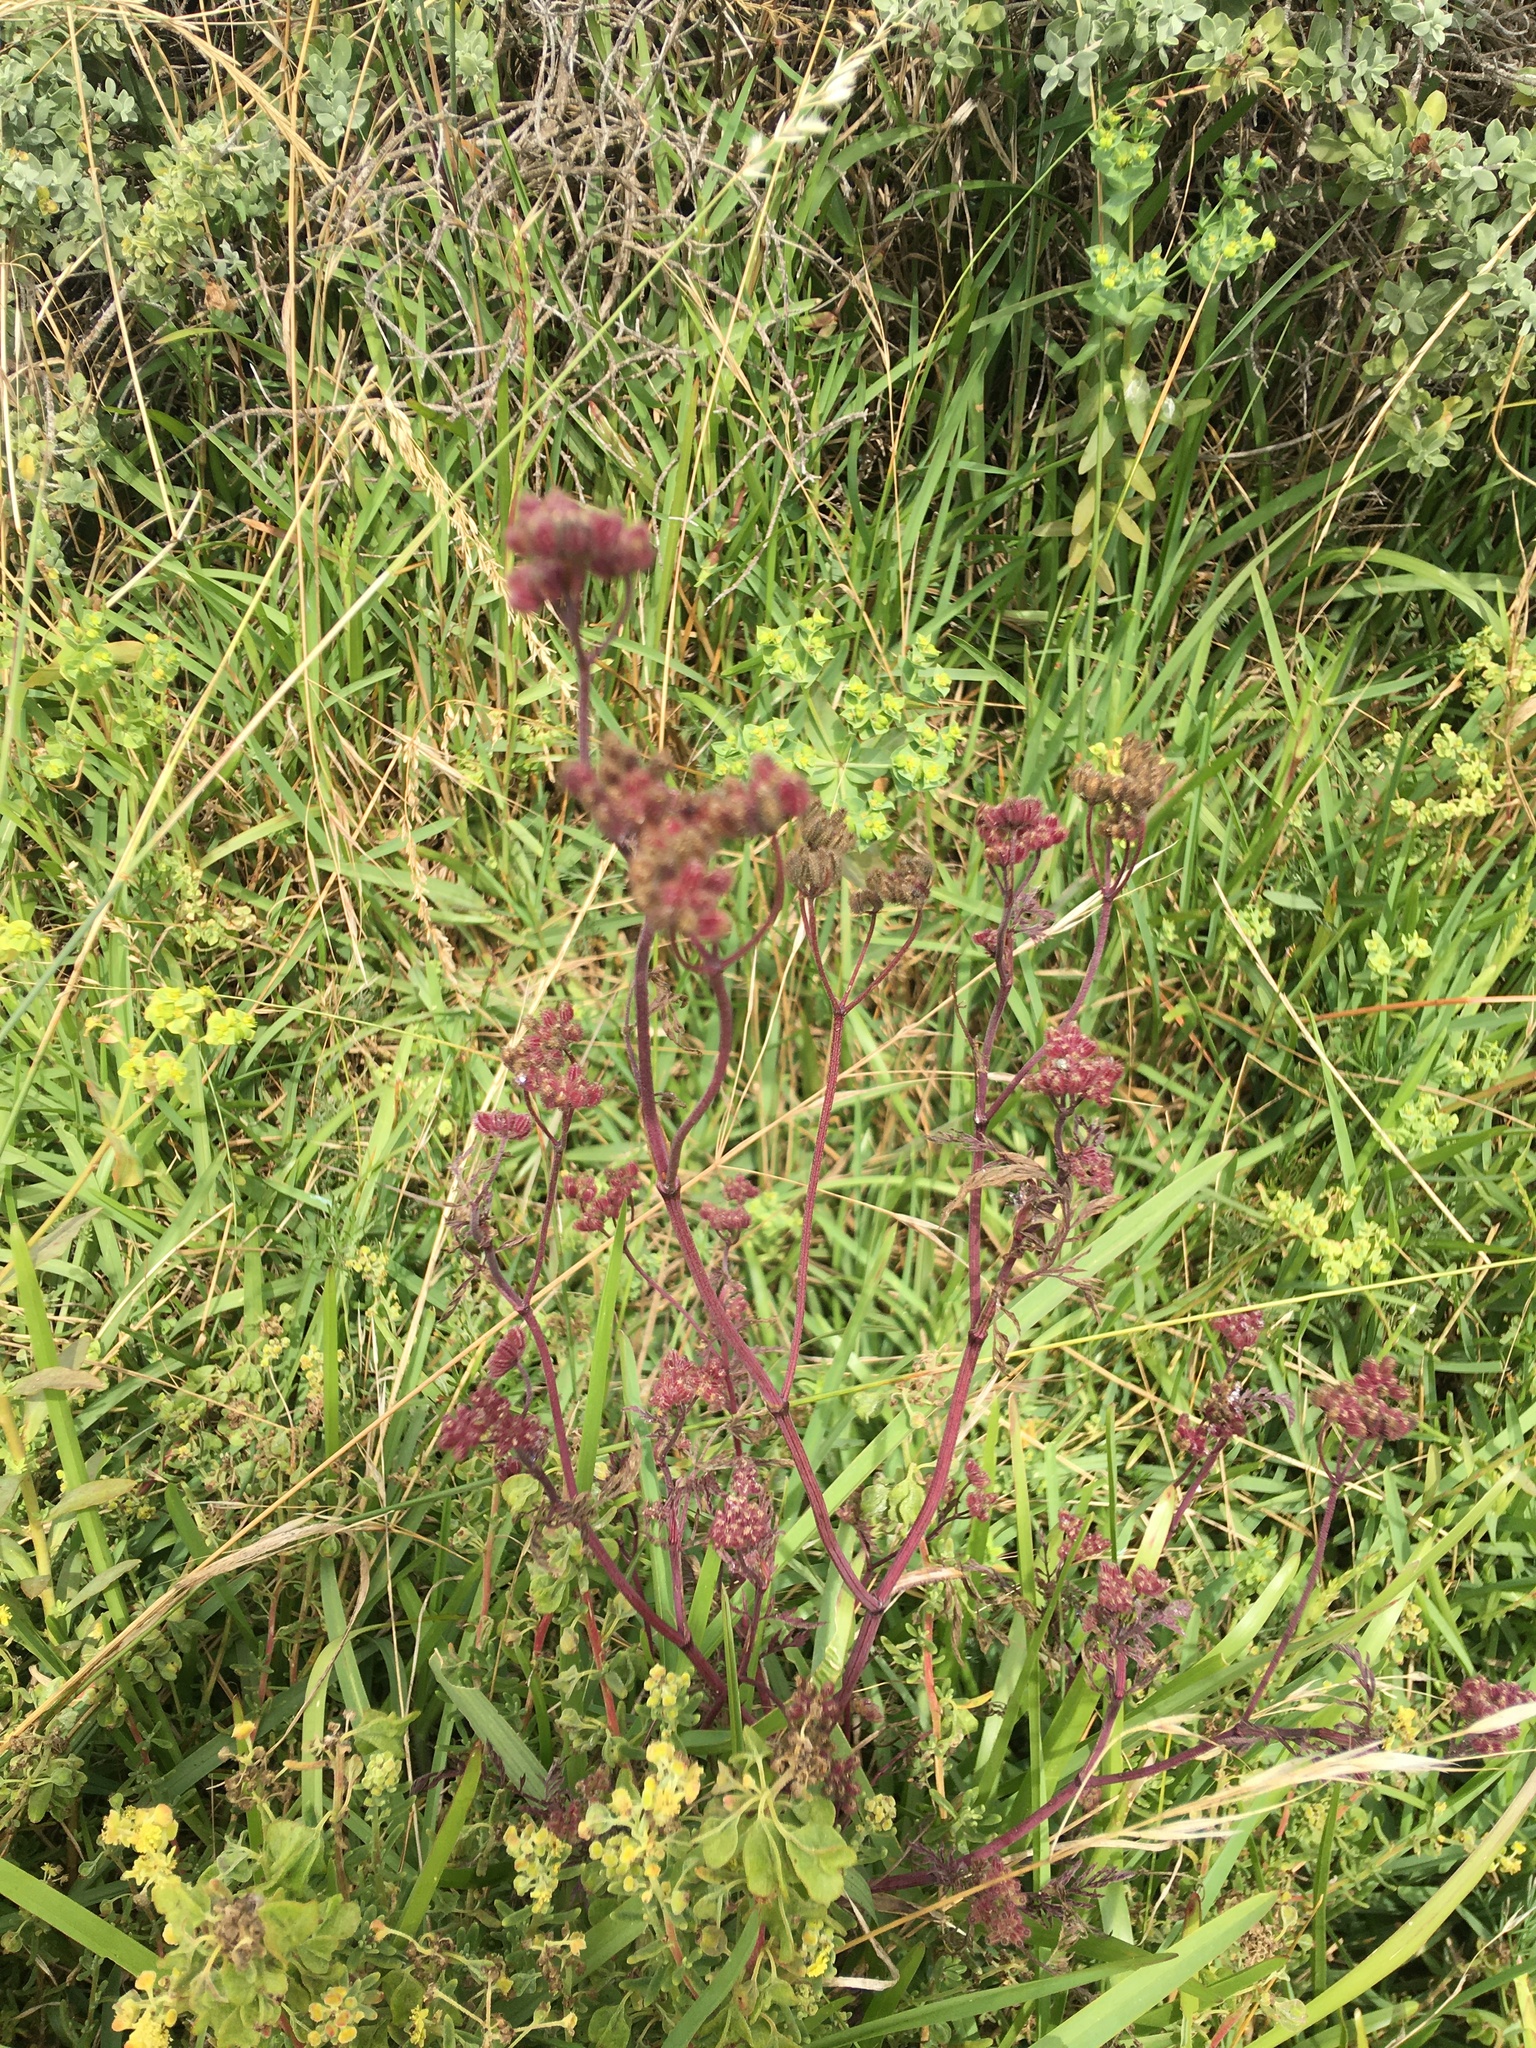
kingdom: Plantae
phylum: Tracheophyta
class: Magnoliopsida
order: Apiales
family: Apiaceae
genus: Torilis
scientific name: Torilis africana
